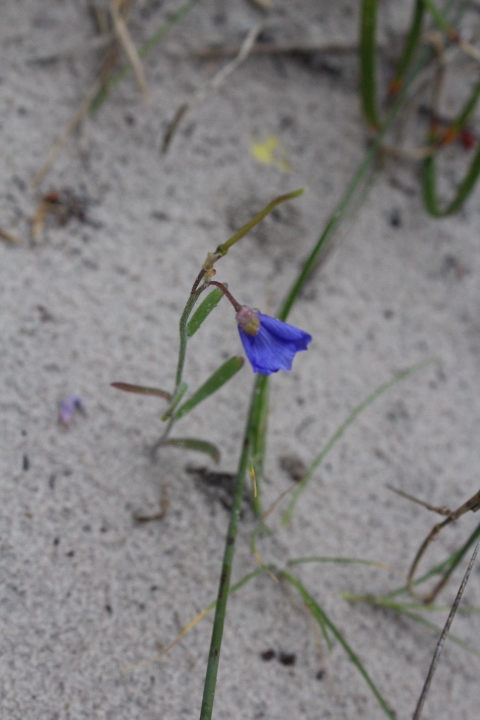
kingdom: Plantae
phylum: Tracheophyta
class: Magnoliopsida
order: Brassicales
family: Brassicaceae
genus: Heliophila
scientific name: Heliophila africana
